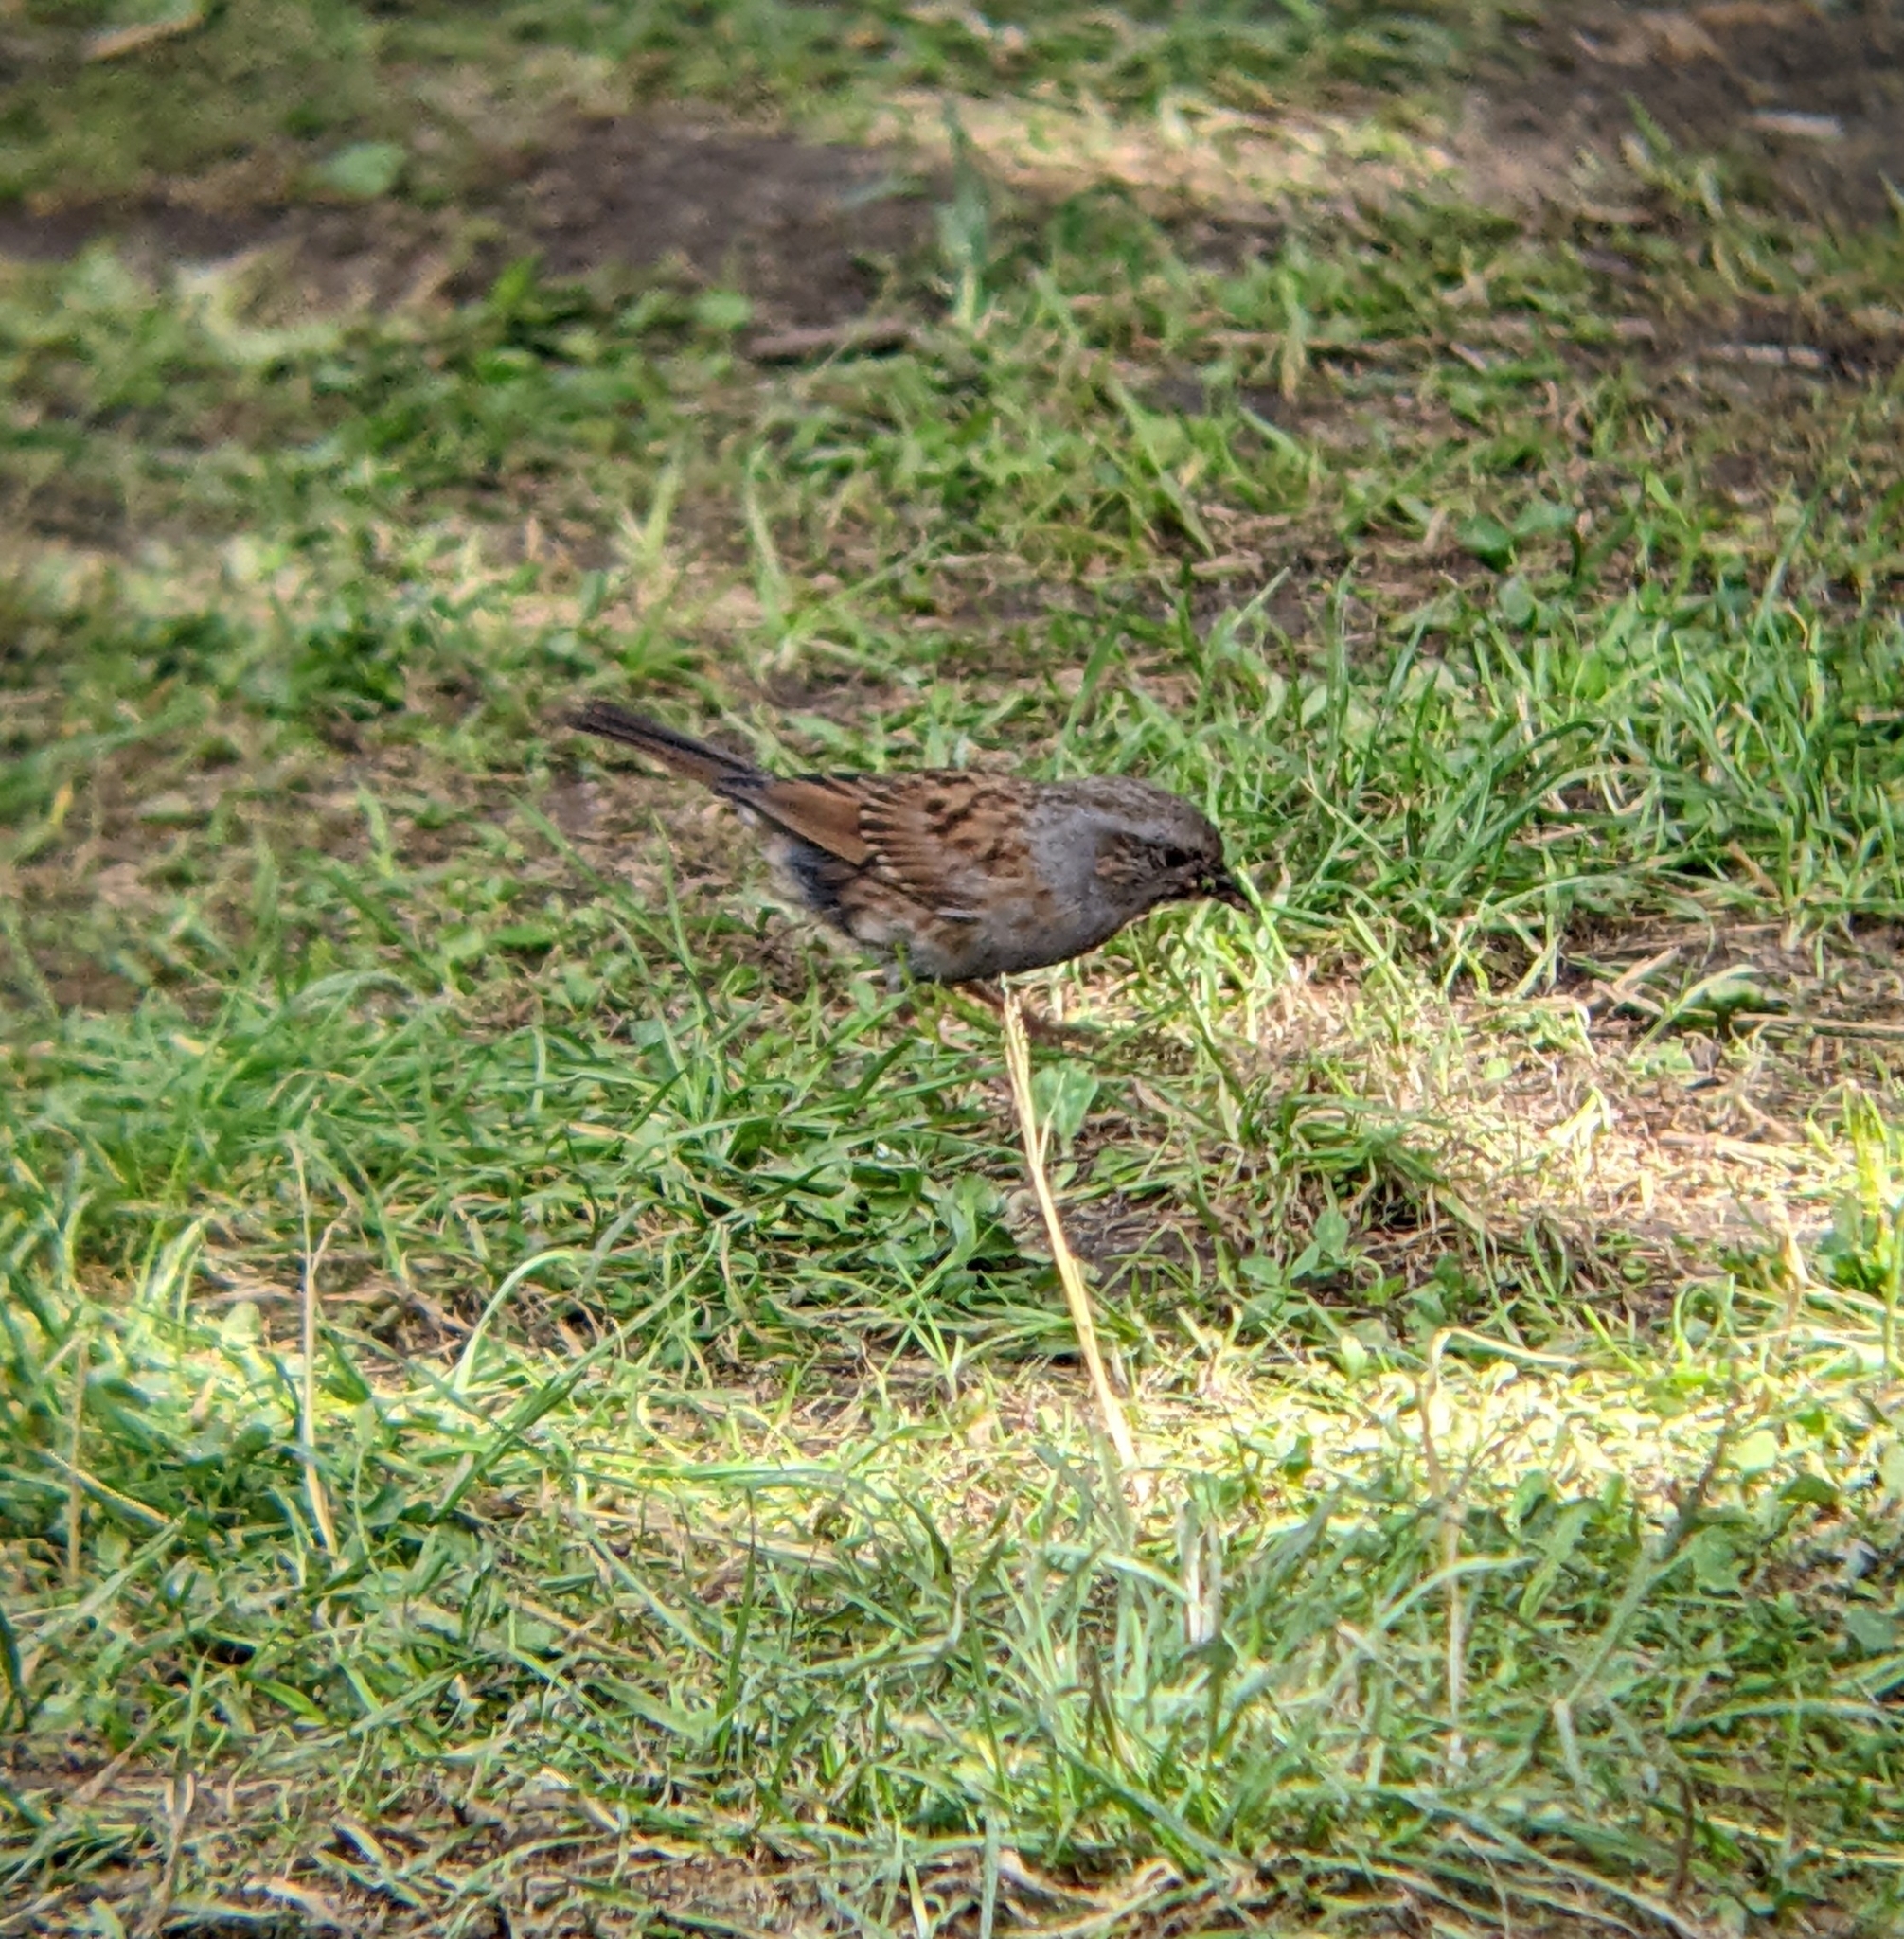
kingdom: Animalia
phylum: Chordata
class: Aves
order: Passeriformes
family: Prunellidae
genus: Prunella
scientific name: Prunella modularis
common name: Dunnock
